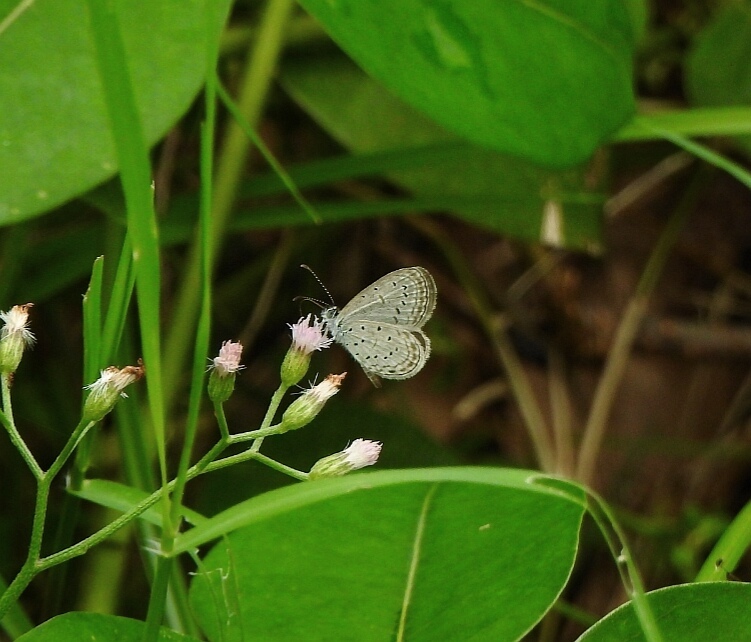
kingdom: Animalia
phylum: Arthropoda
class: Insecta
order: Lepidoptera
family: Lycaenidae
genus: Zizula
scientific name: Zizula hylax
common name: Gaika blue
